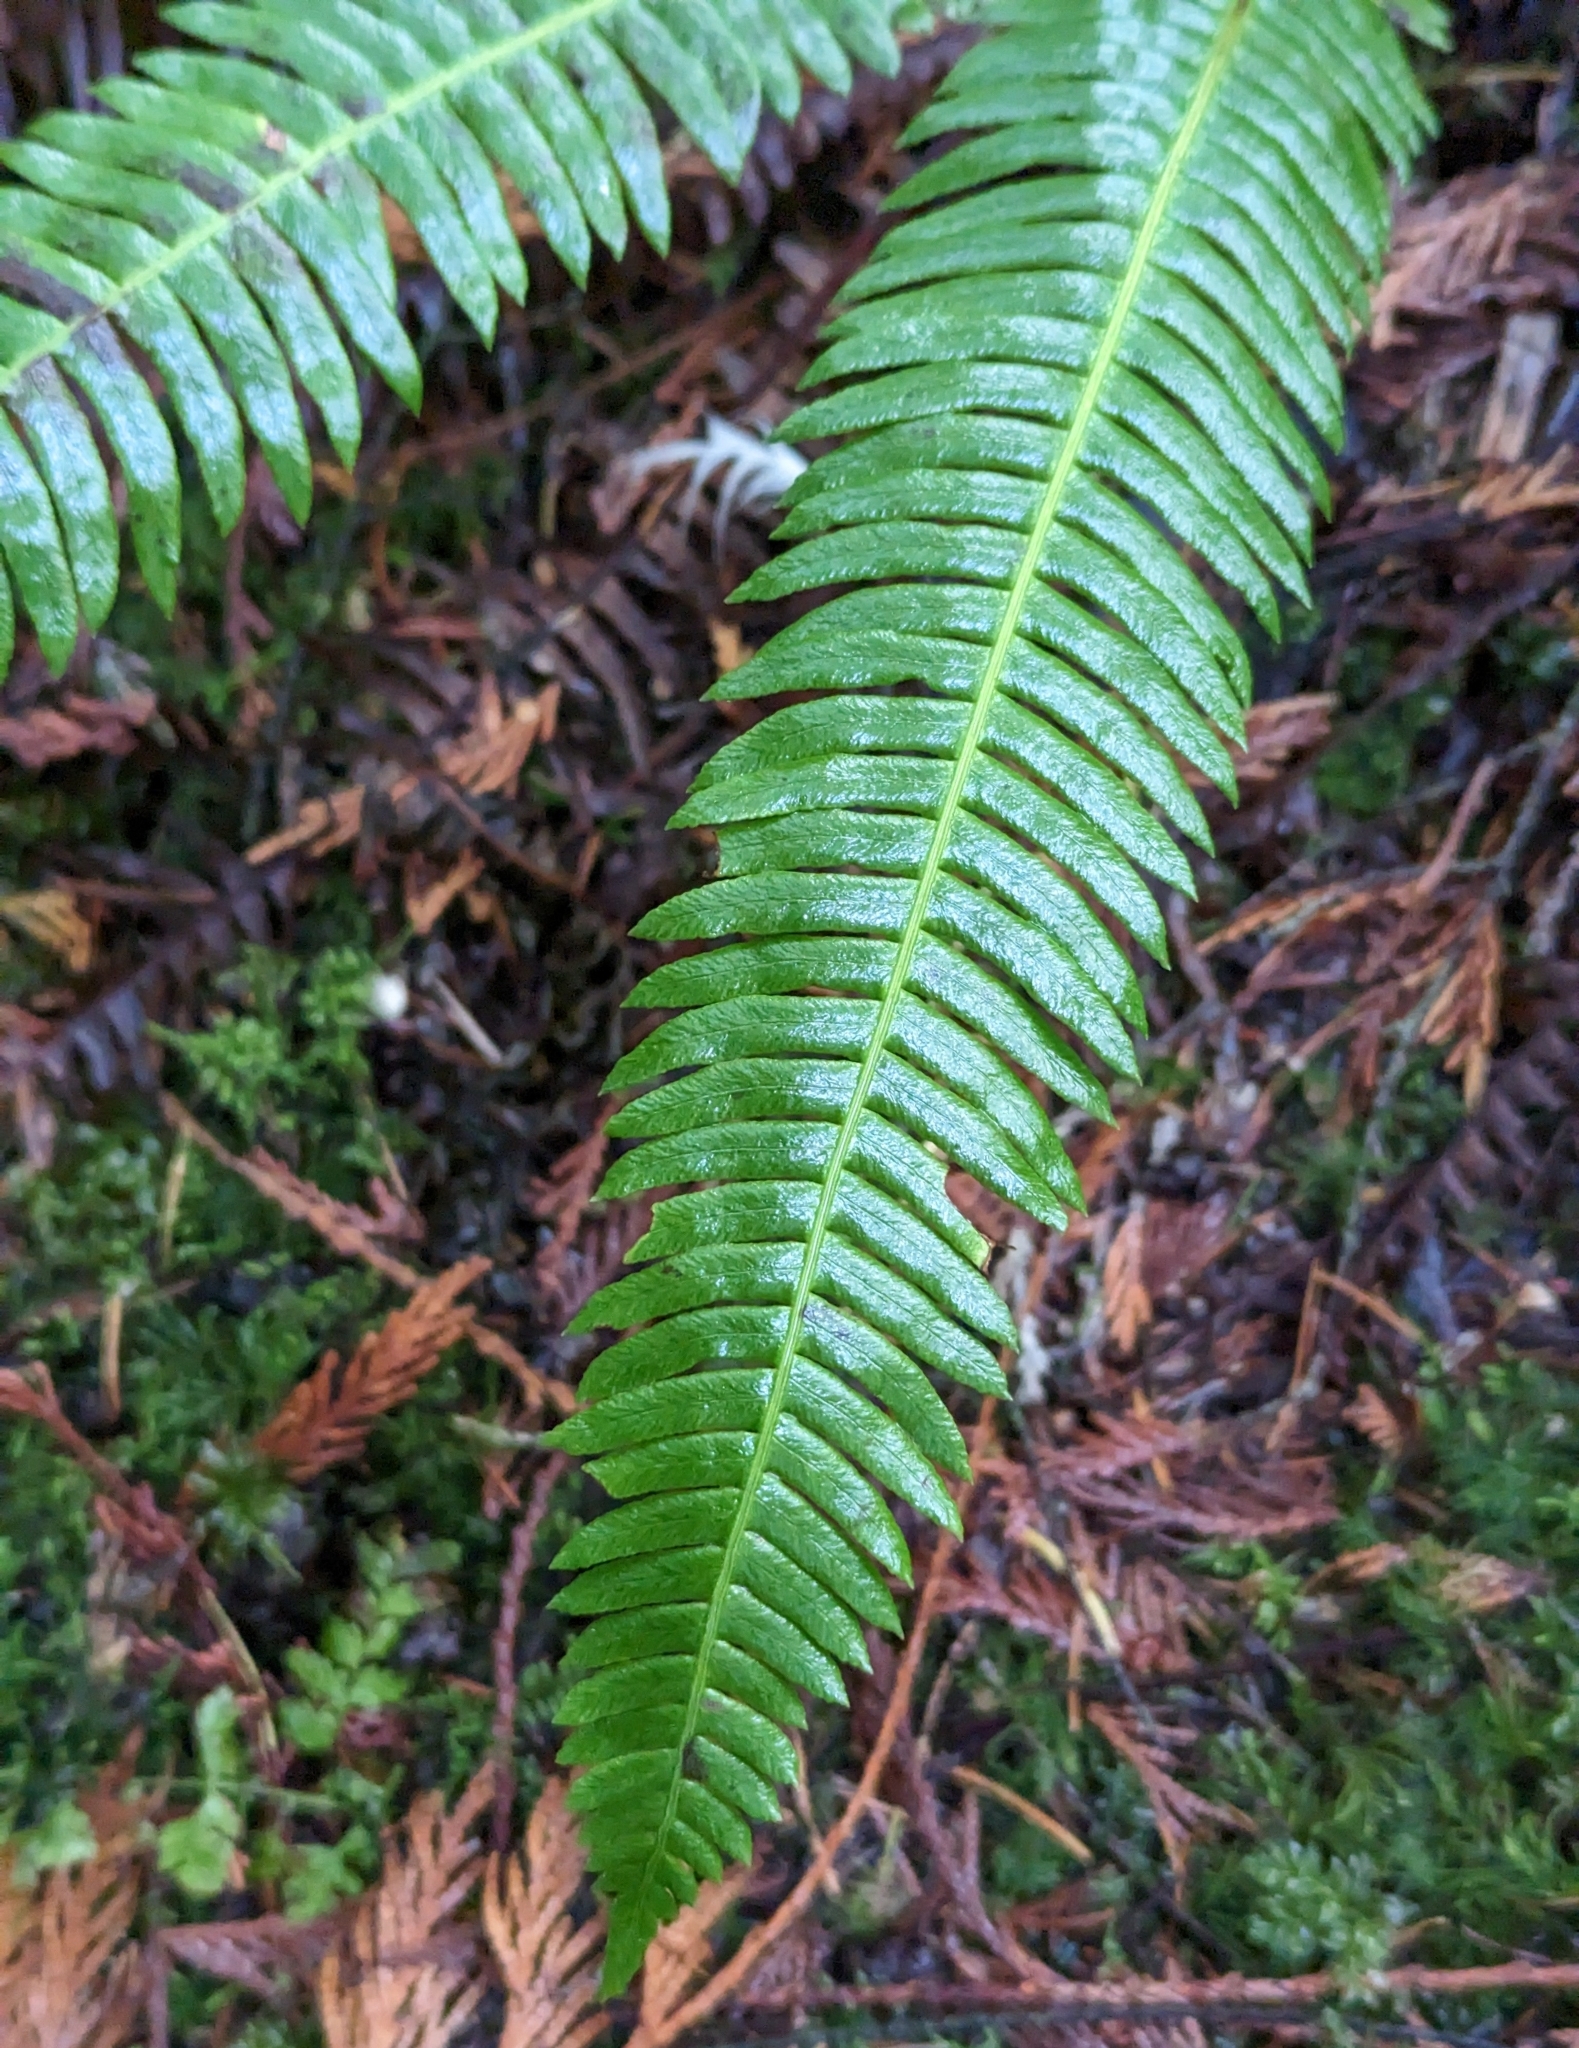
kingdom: Plantae
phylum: Tracheophyta
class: Polypodiopsida
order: Polypodiales
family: Blechnaceae
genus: Struthiopteris
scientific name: Struthiopteris spicant
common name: Deer fern
